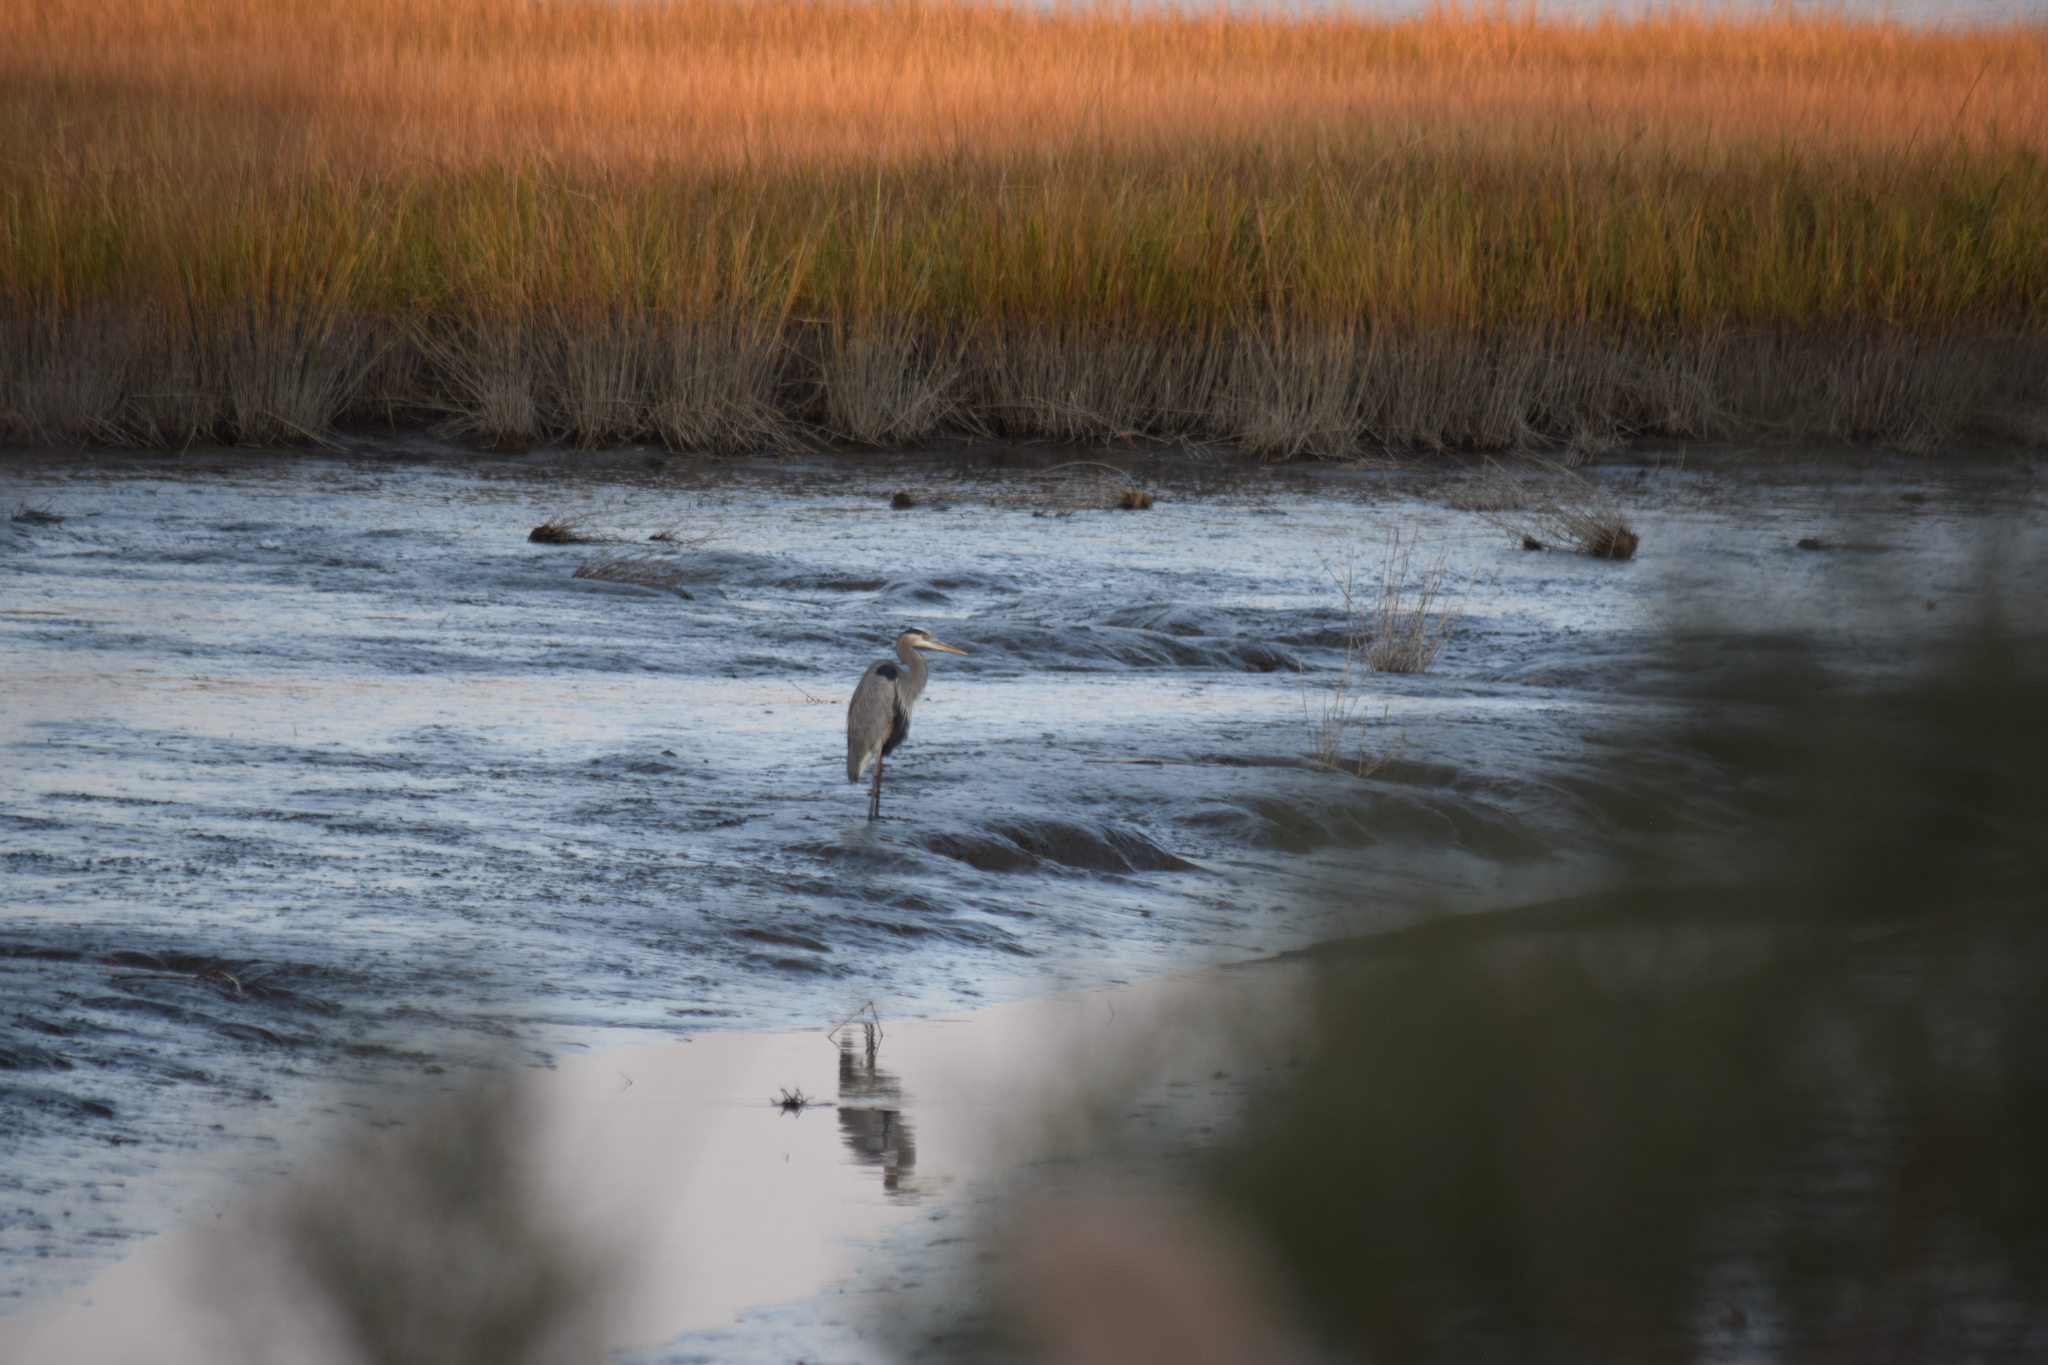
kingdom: Animalia
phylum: Chordata
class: Aves
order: Pelecaniformes
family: Ardeidae
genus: Ardea
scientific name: Ardea herodias
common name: Great blue heron
